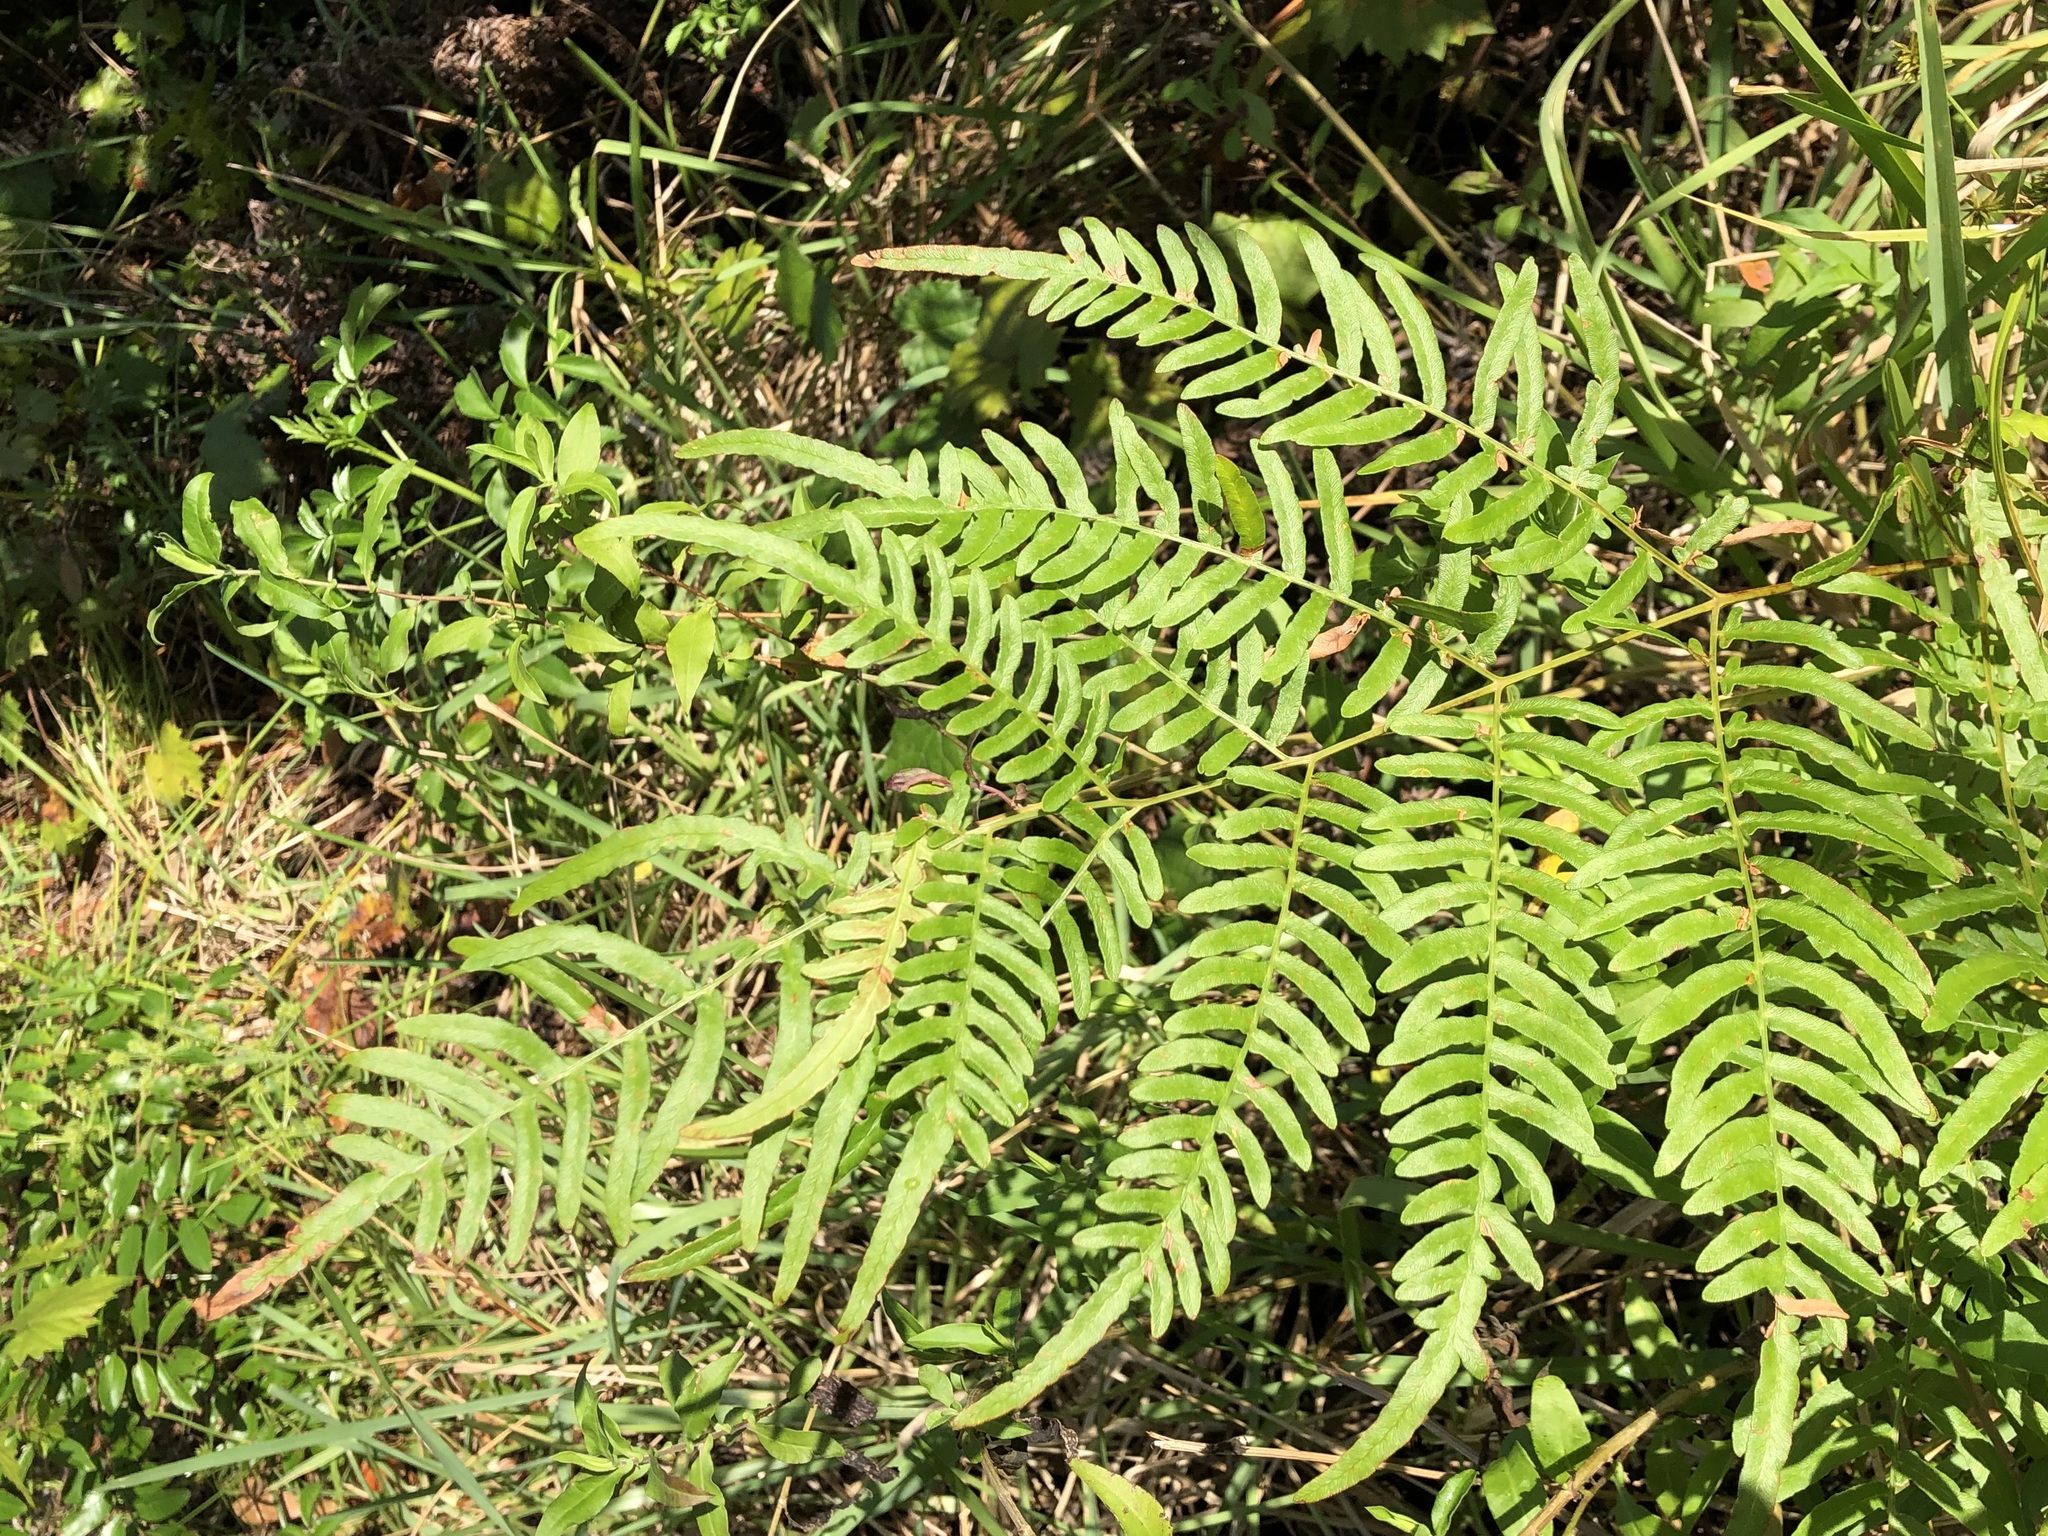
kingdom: Plantae
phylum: Tracheophyta
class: Polypodiopsida
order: Polypodiales
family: Dennstaedtiaceae
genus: Pteridium
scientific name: Pteridium
